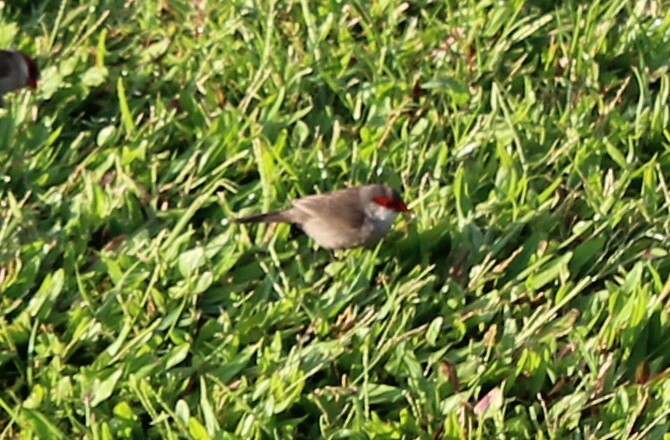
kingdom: Animalia
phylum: Chordata
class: Aves
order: Passeriformes
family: Estrildidae
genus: Estrilda
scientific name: Estrilda astrild
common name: Common waxbill
